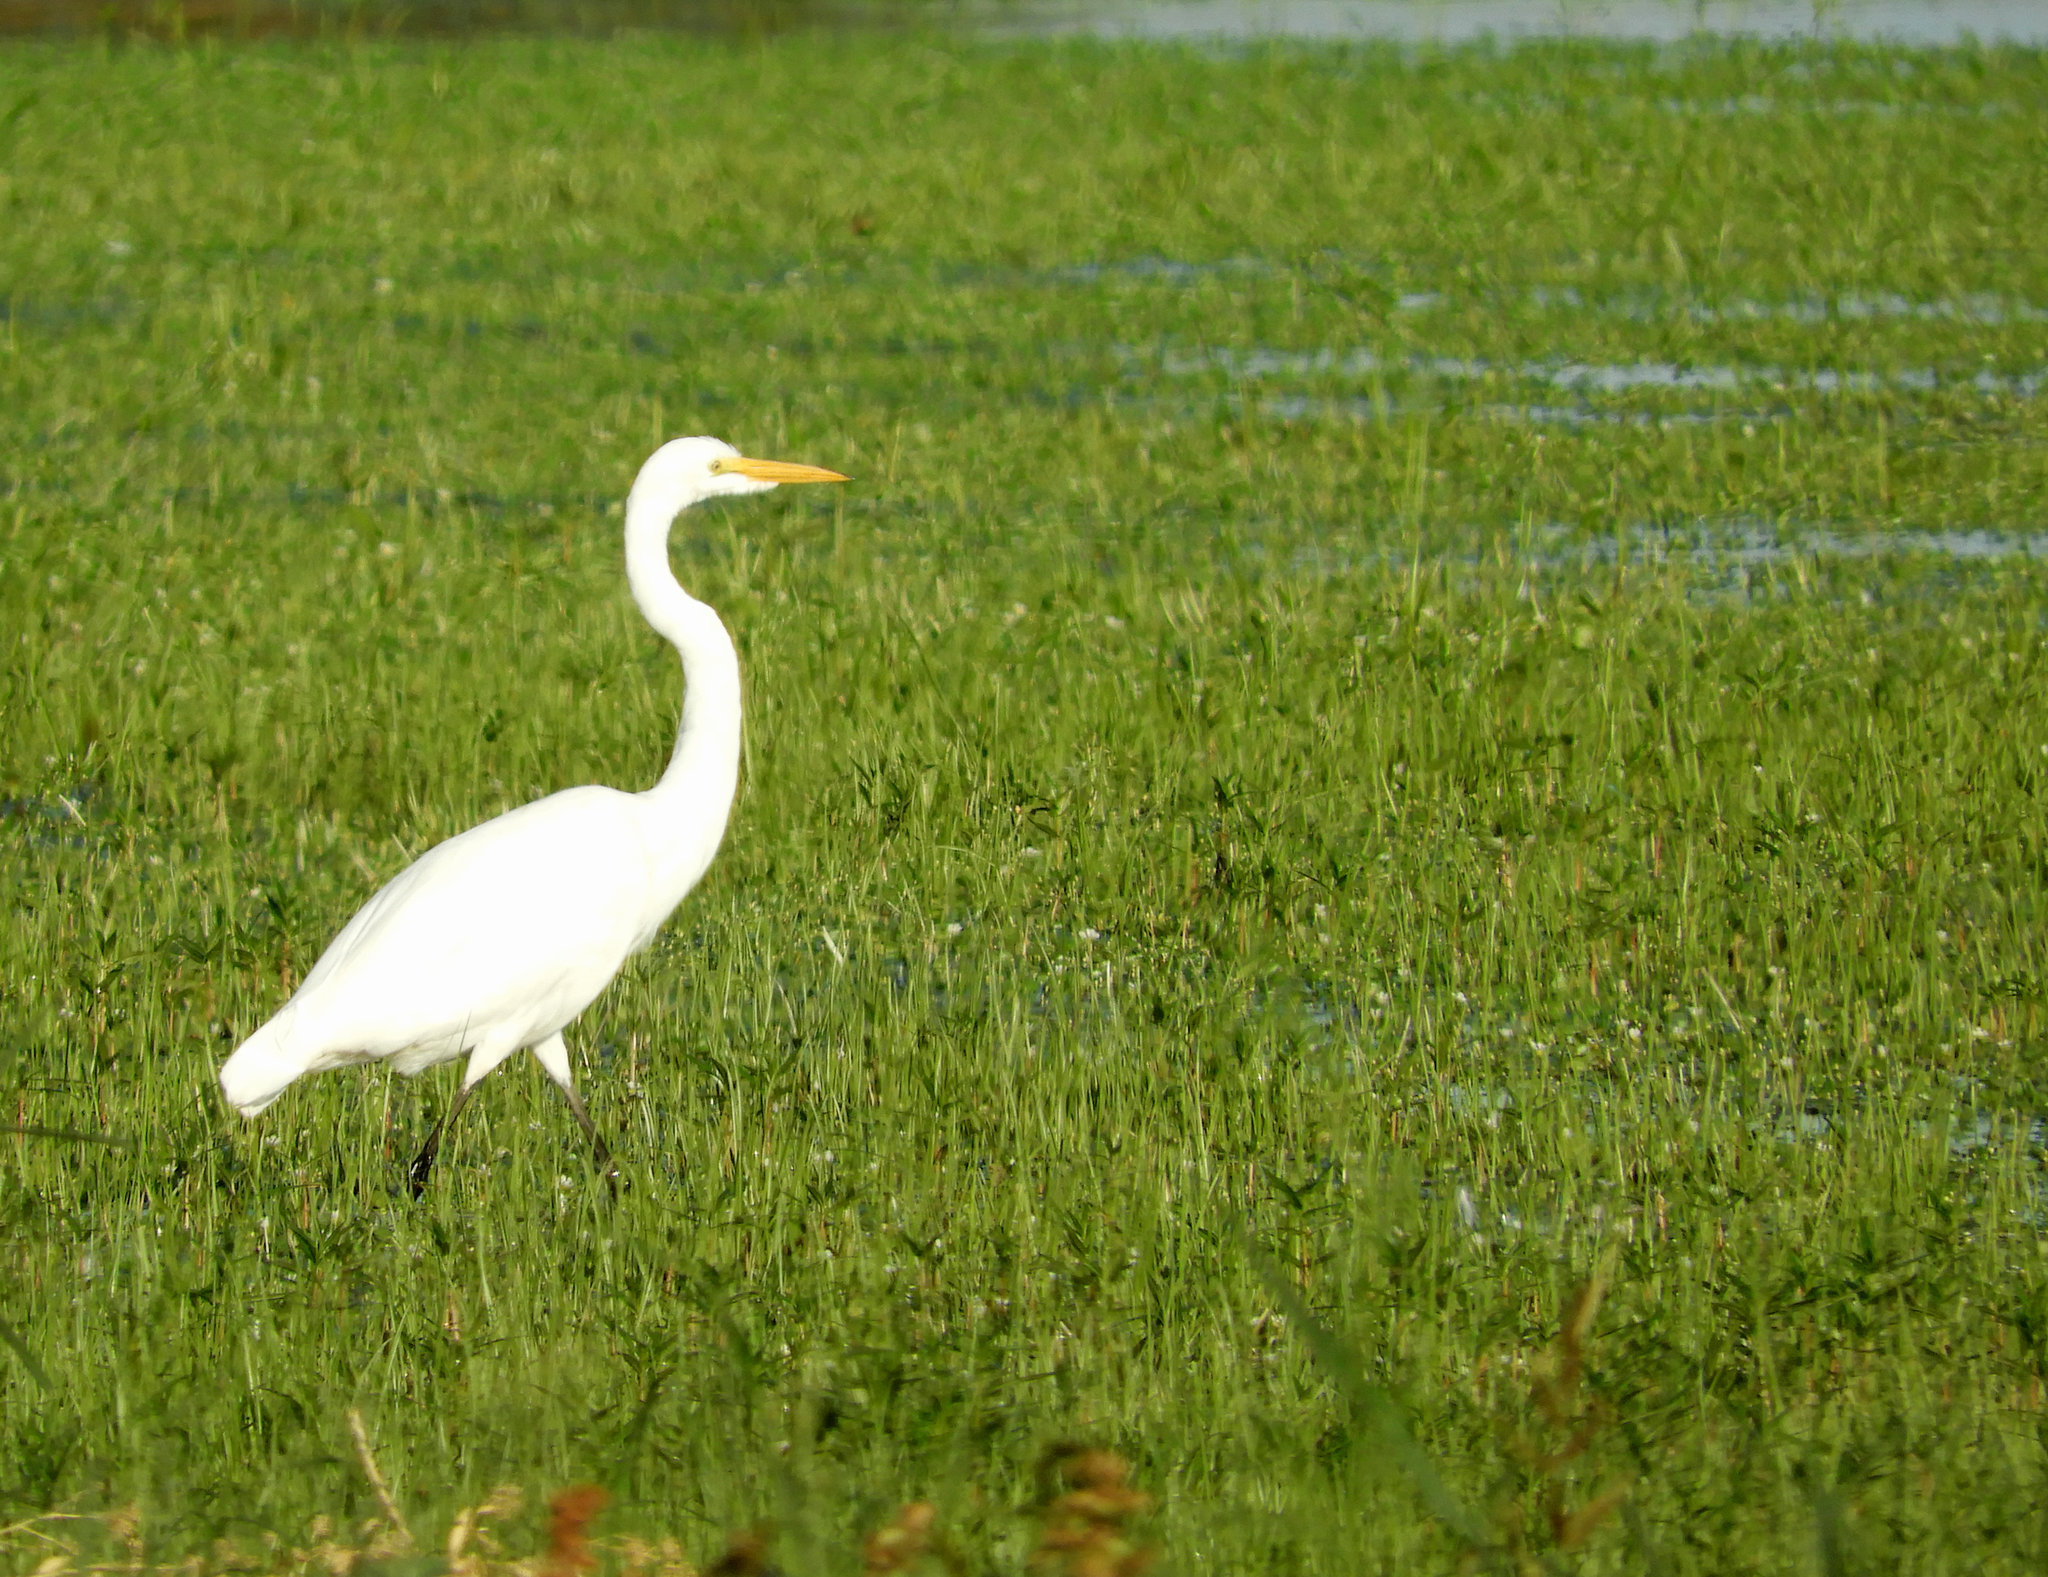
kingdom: Animalia
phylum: Chordata
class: Aves
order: Pelecaniformes
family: Ardeidae
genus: Ardea
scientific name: Ardea alba
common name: Great egret
